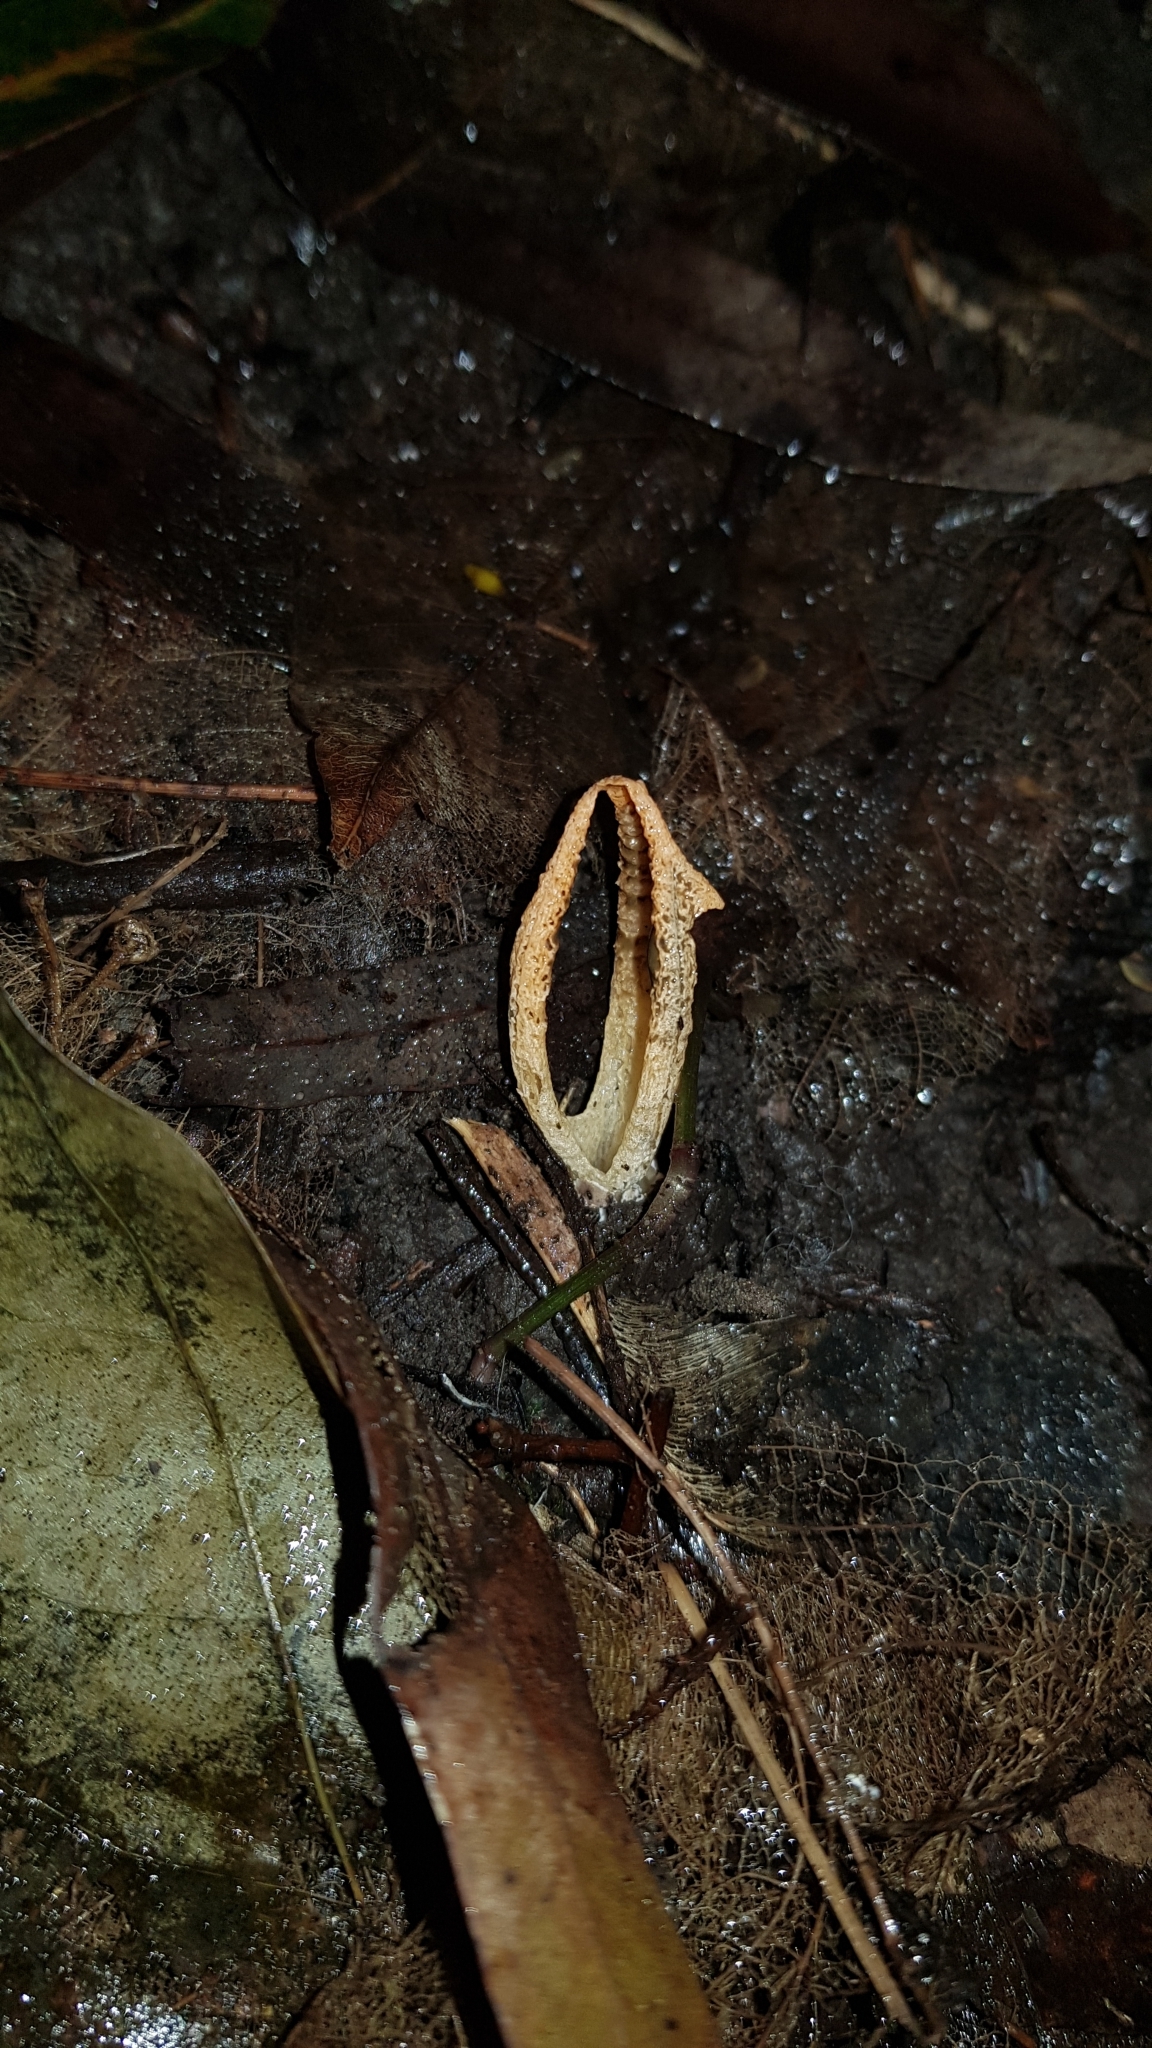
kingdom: Fungi
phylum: Basidiomycota
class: Agaricomycetes
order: Phallales
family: Phallaceae
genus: Pseudocolus
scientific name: Pseudocolus fusiformis
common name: Stinky squid
